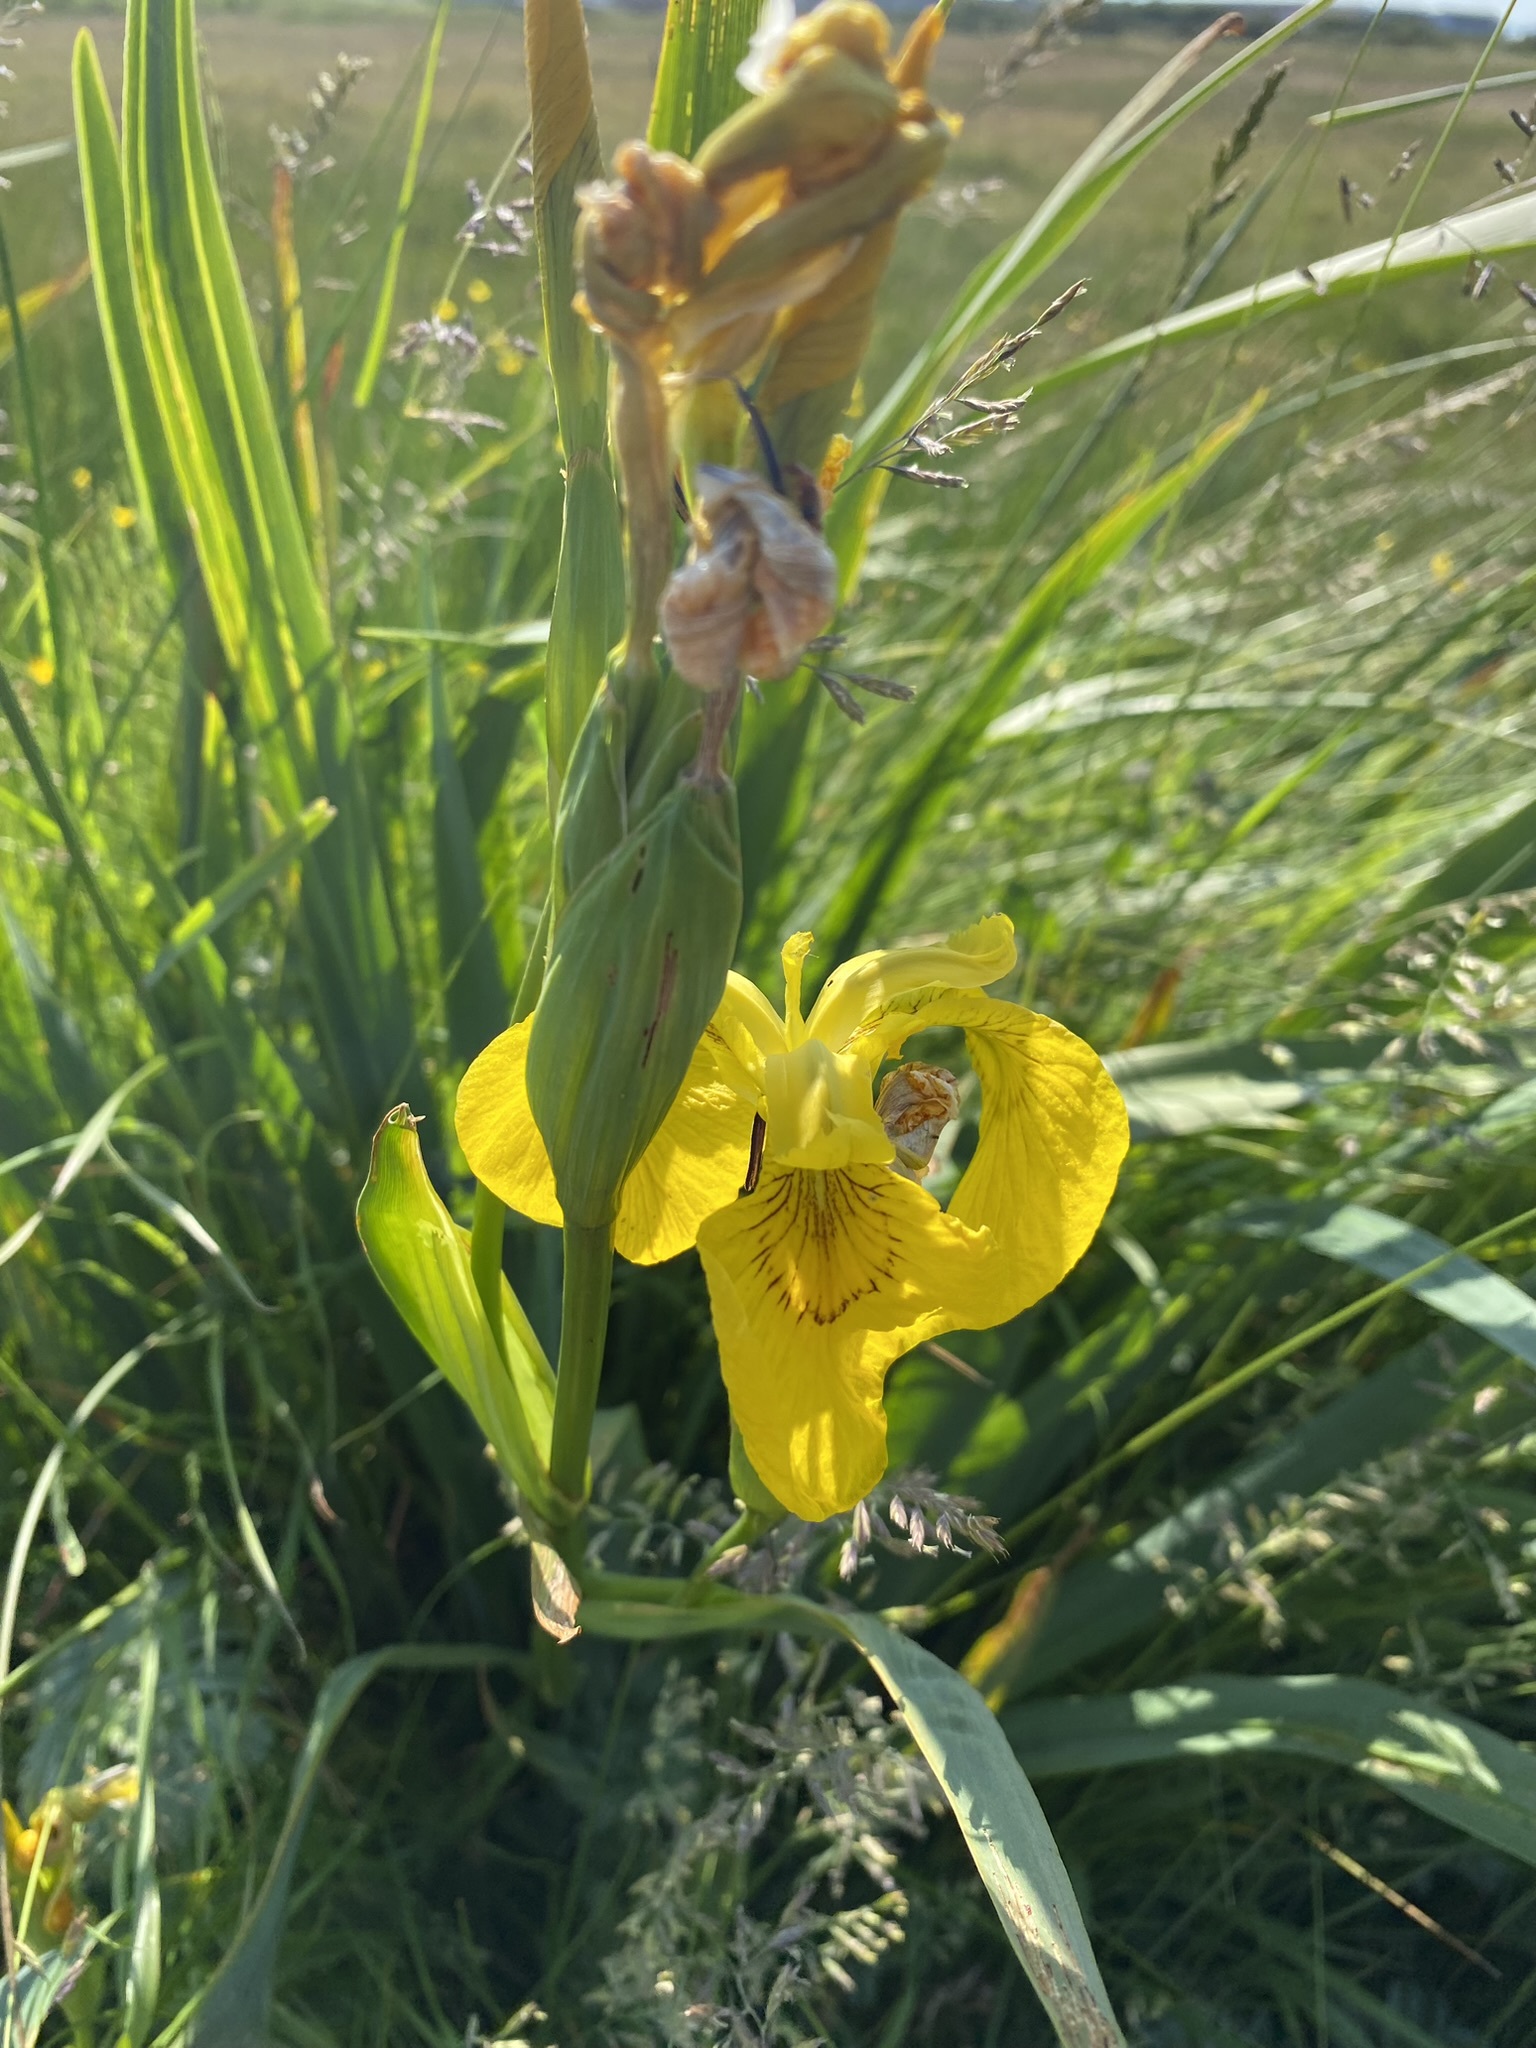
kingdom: Plantae
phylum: Tracheophyta
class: Liliopsida
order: Asparagales
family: Iridaceae
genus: Iris
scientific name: Iris pseudacorus
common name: Yellow flag
